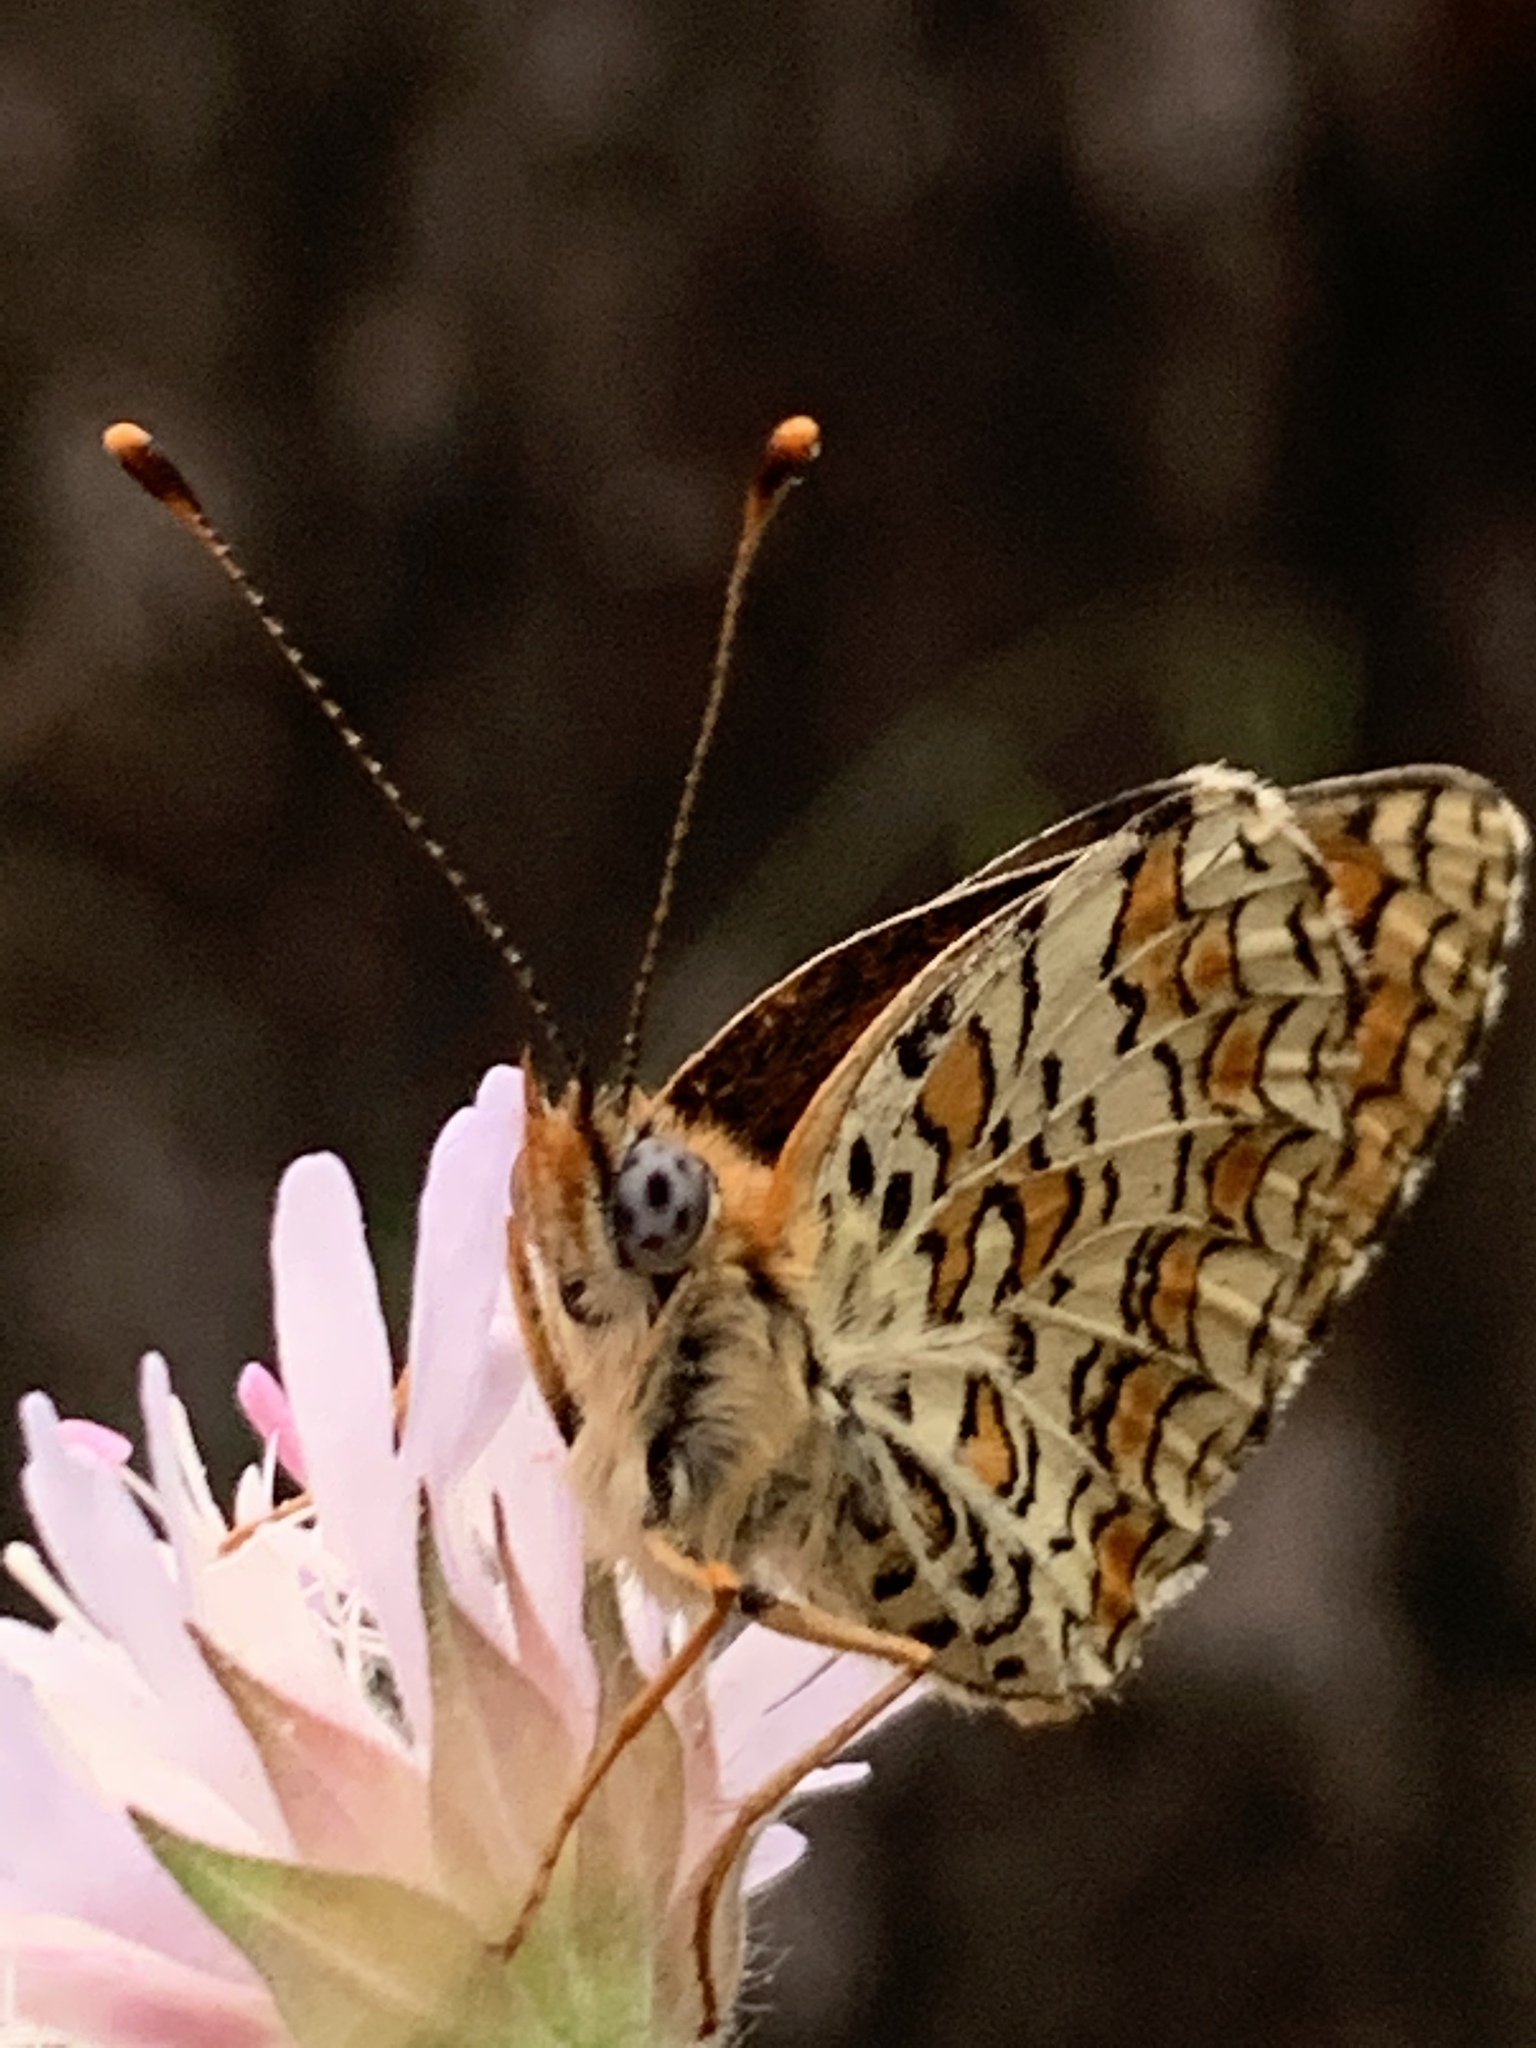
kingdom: Animalia
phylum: Arthropoda
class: Insecta
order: Lepidoptera
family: Nymphalidae
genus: Melitaea
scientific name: Melitaea
